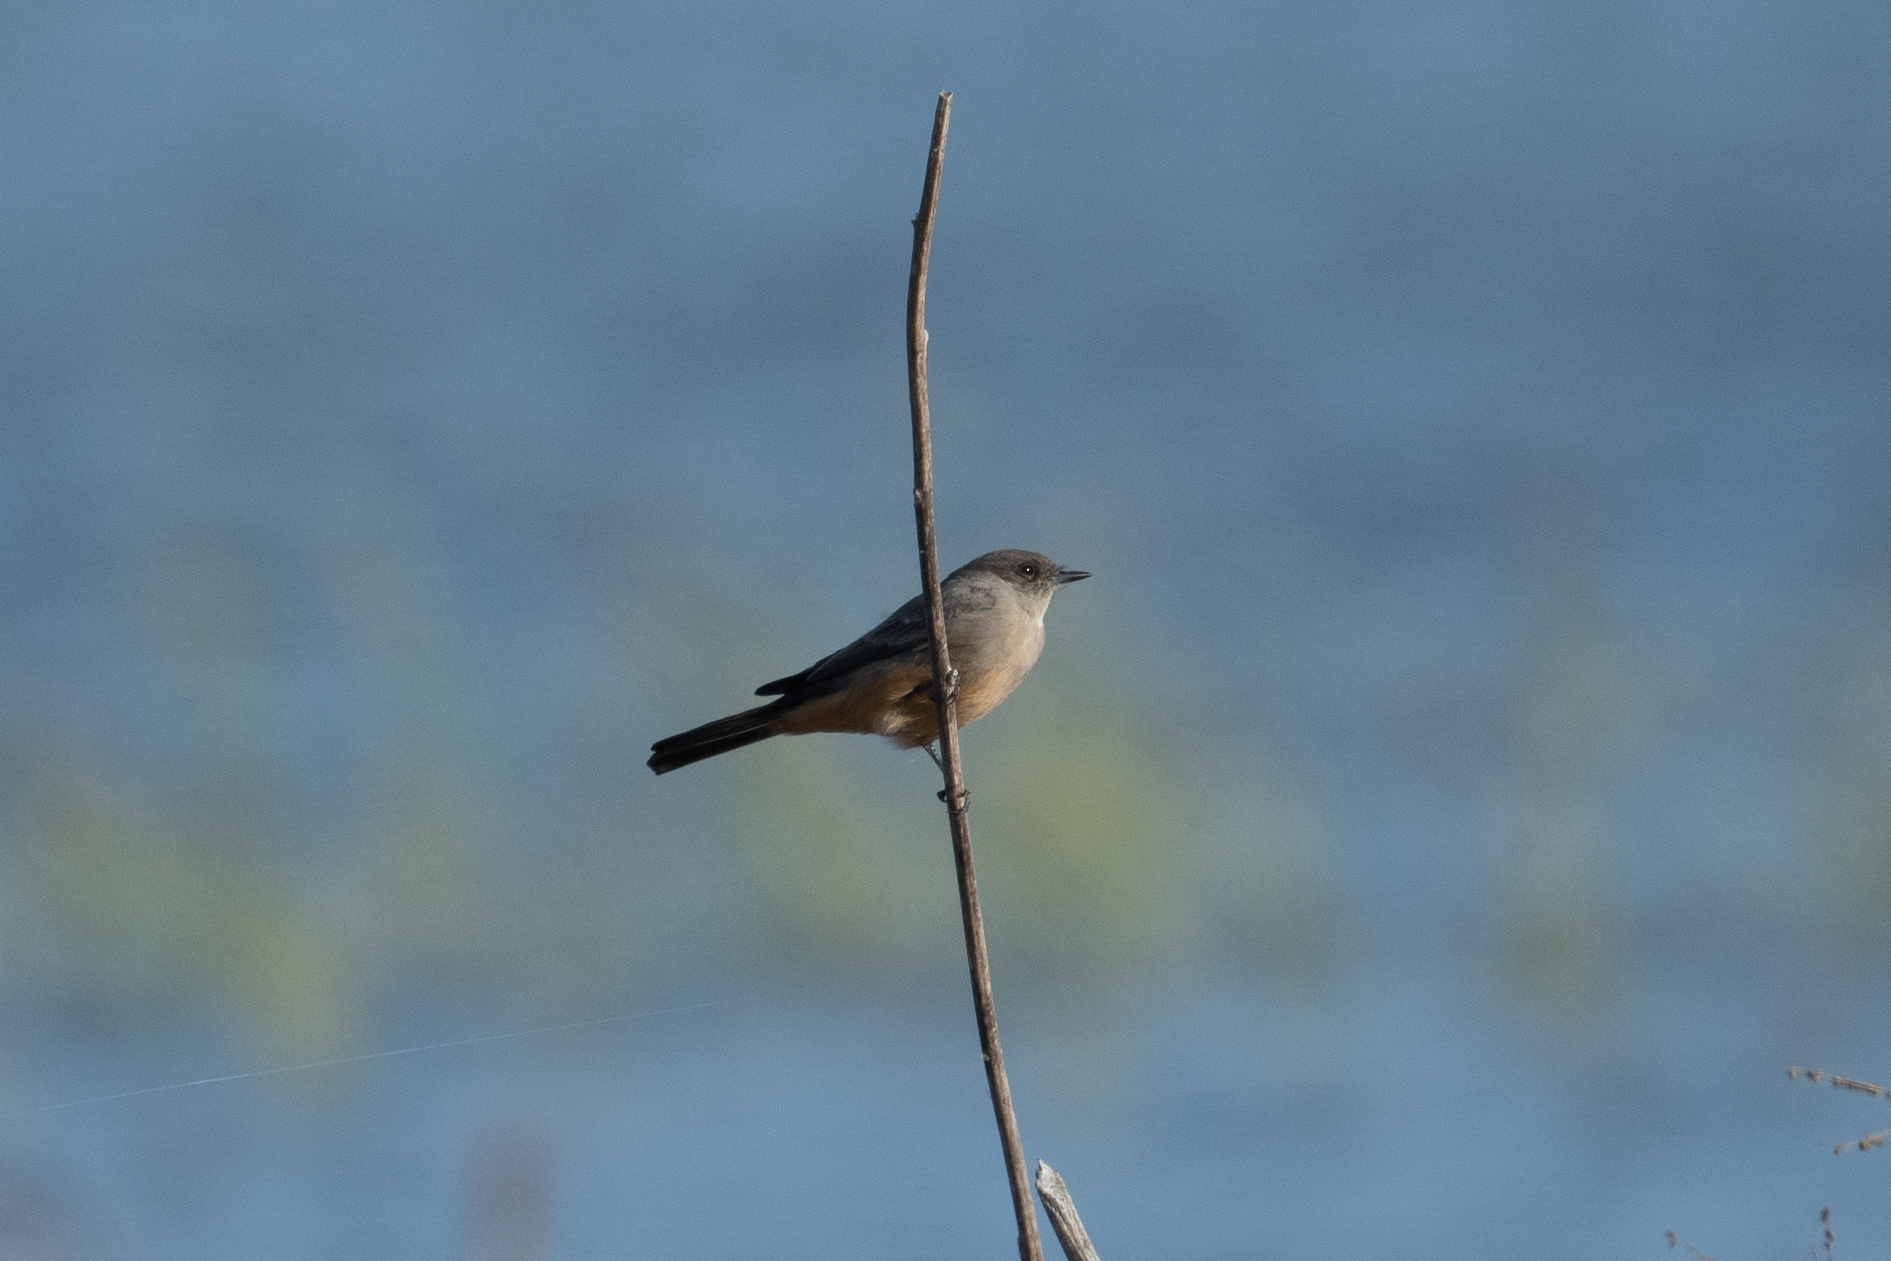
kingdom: Animalia
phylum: Chordata
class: Aves
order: Passeriformes
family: Tyrannidae
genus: Sayornis
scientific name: Sayornis saya
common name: Say's phoebe
